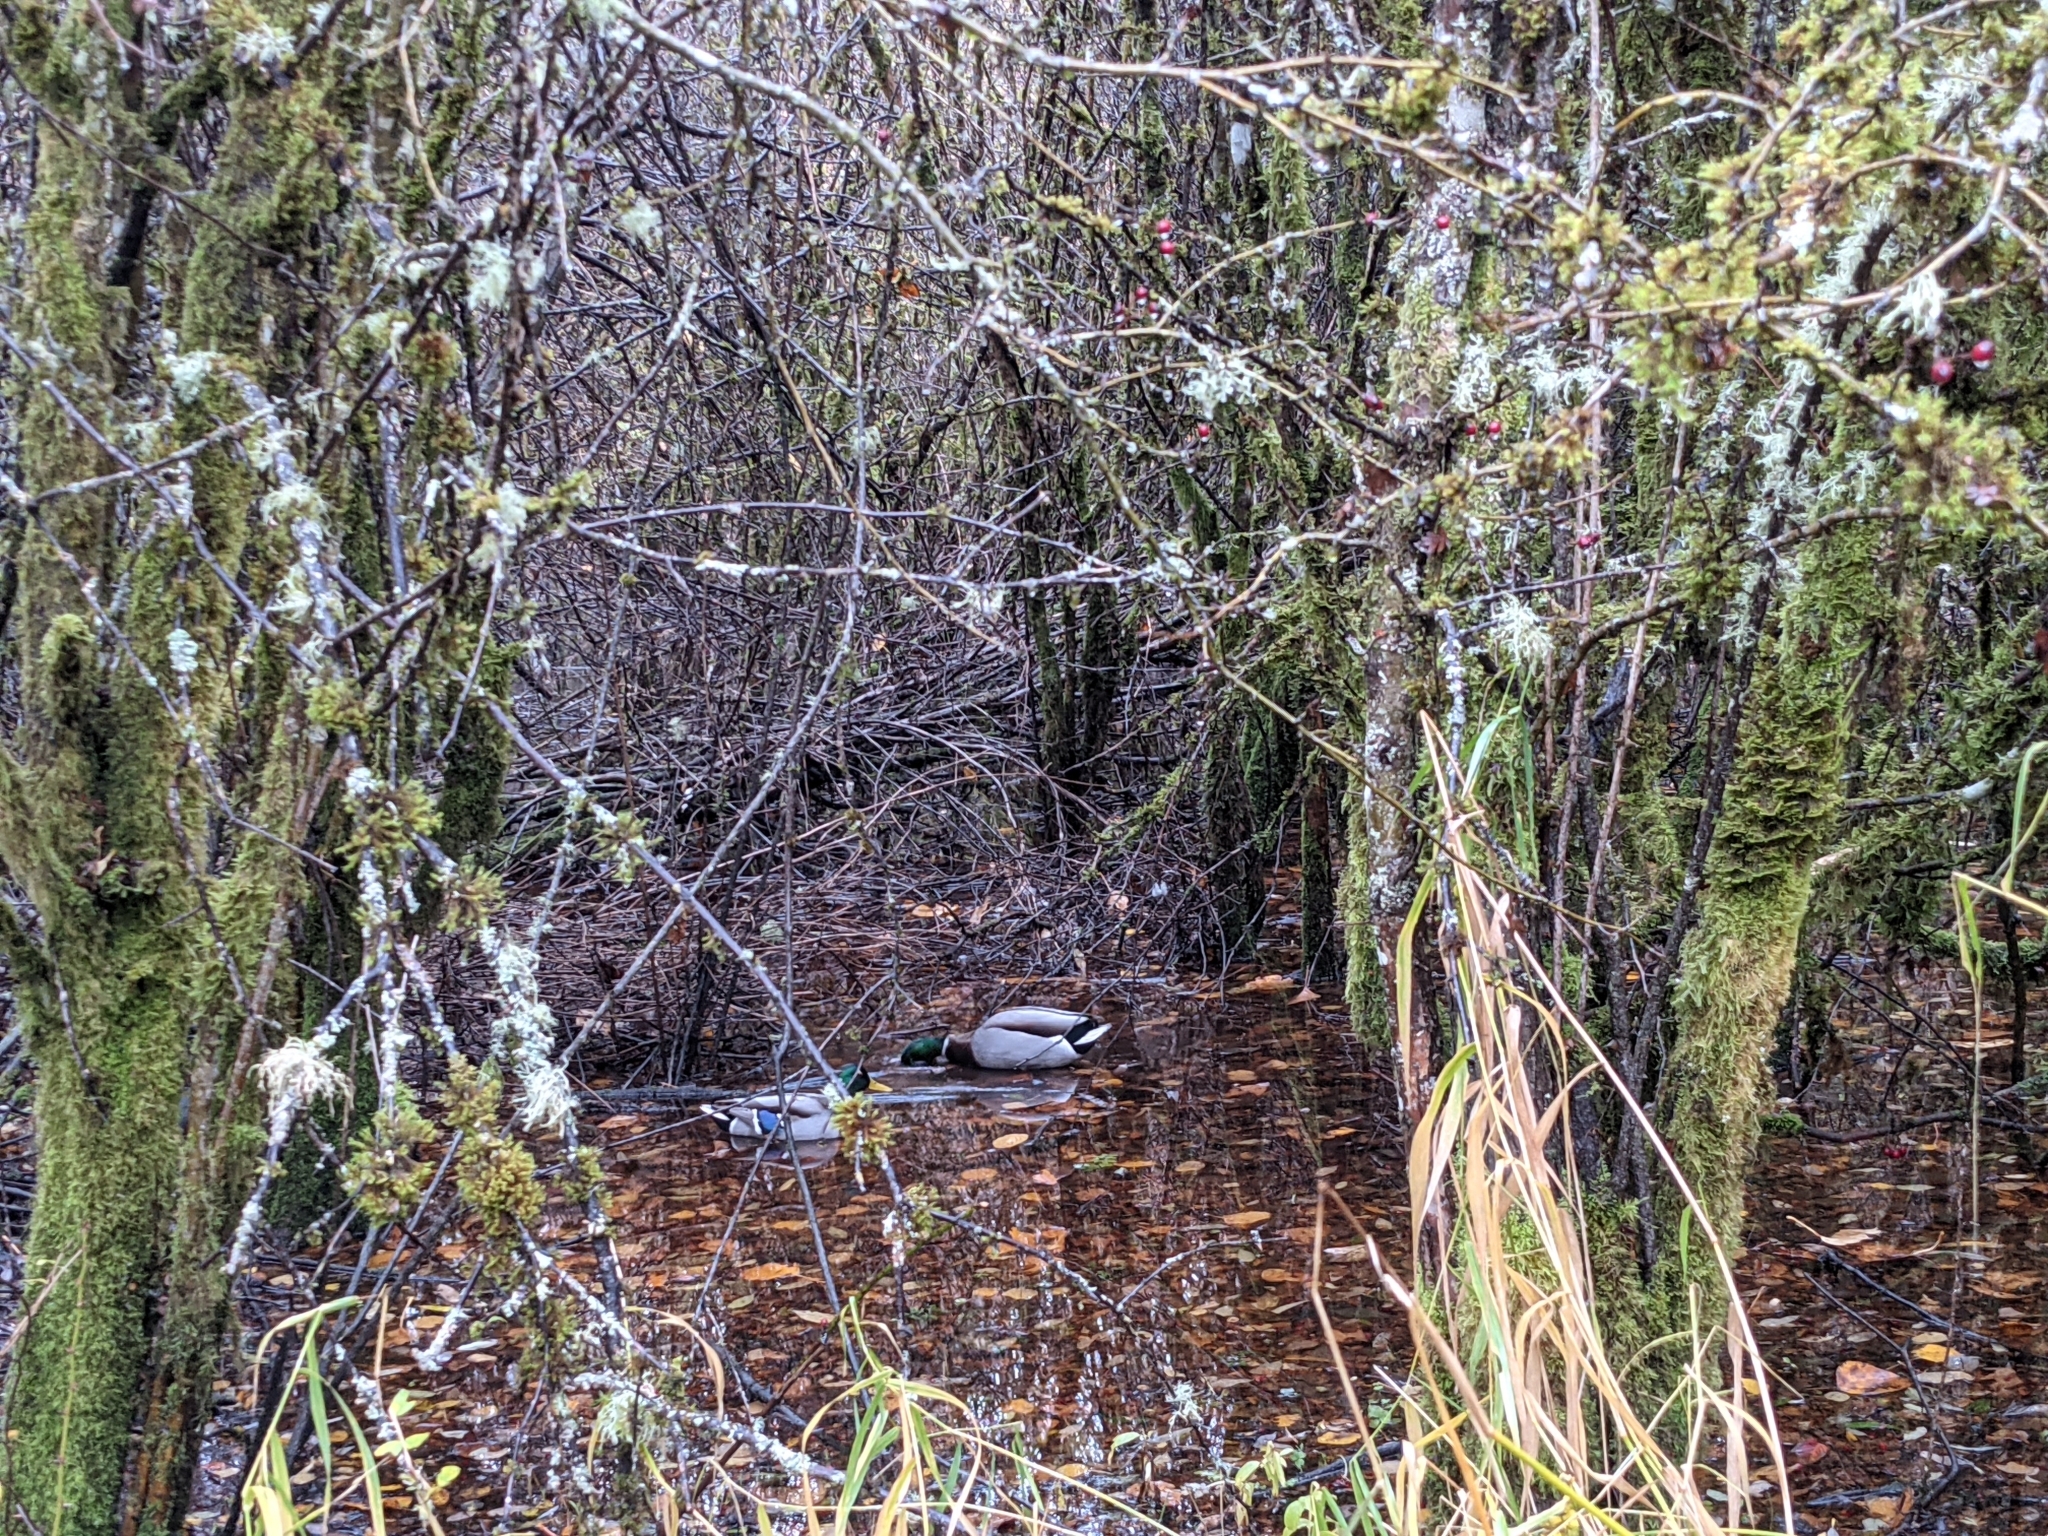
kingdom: Animalia
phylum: Chordata
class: Aves
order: Anseriformes
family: Anatidae
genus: Anas
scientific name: Anas platyrhynchos
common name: Mallard
